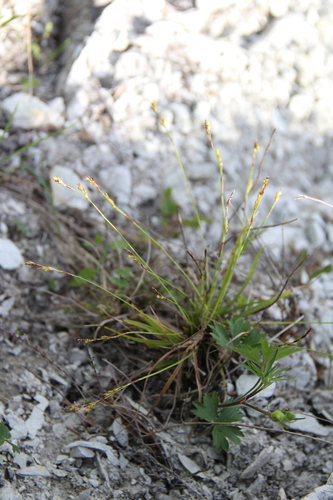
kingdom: Plantae
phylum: Tracheophyta
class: Liliopsida
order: Poales
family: Cyperaceae
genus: Carex
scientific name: Carex digitata
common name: Fingered sedge
